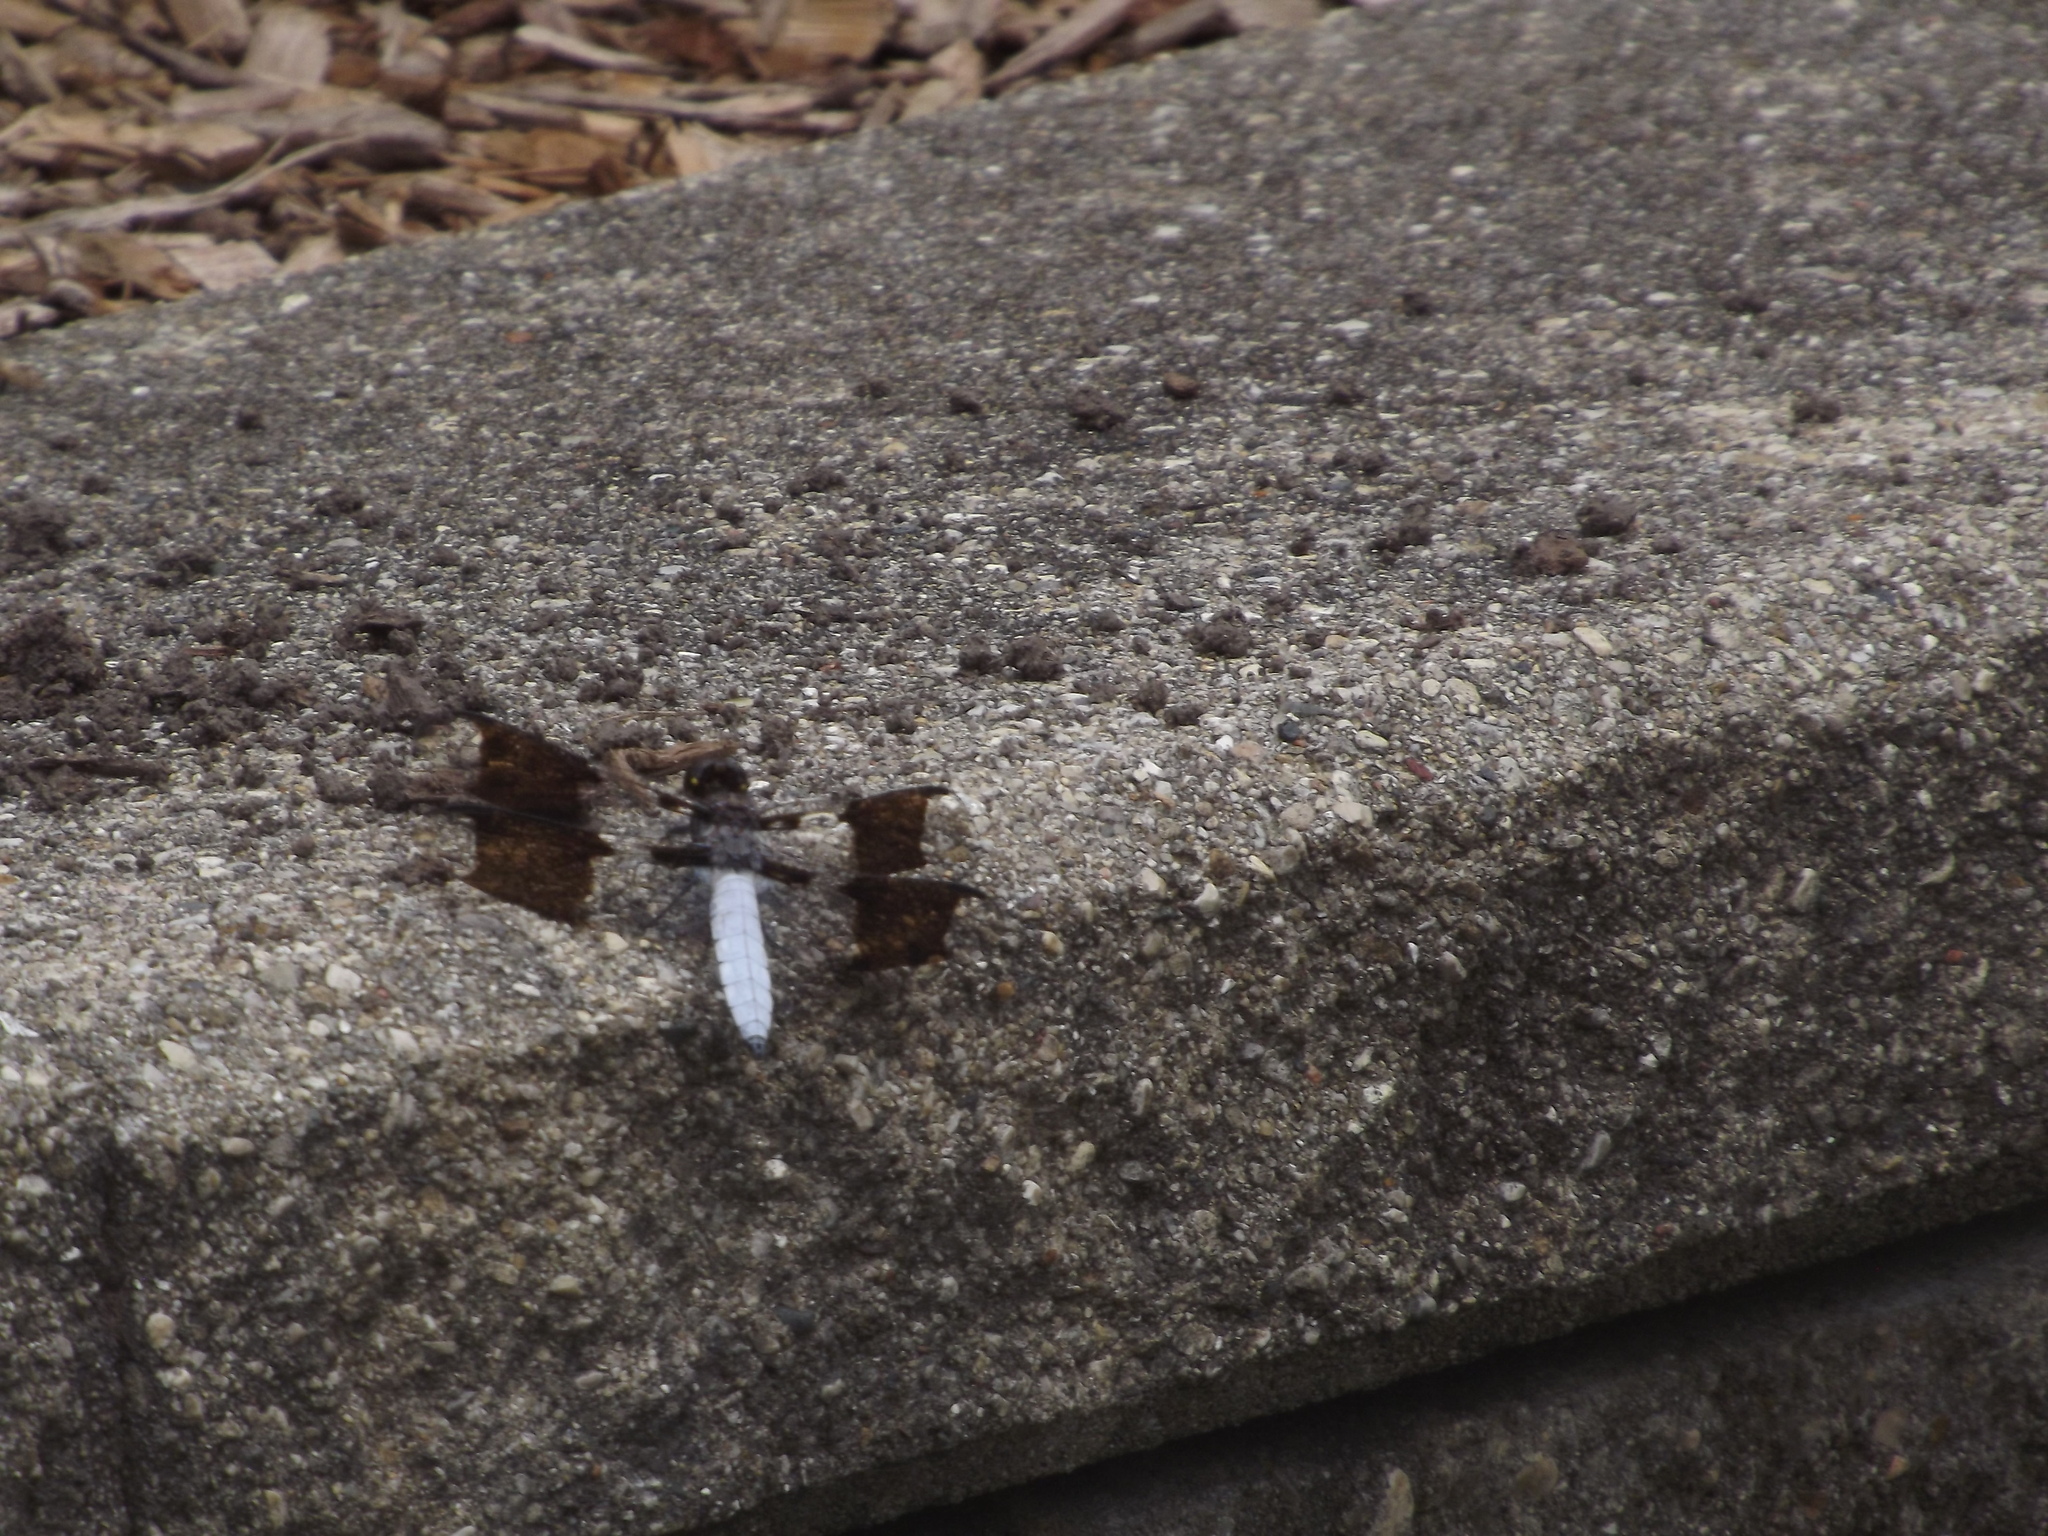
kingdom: Animalia
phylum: Arthropoda
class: Insecta
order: Odonata
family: Libellulidae
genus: Plathemis
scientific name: Plathemis lydia
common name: Common whitetail
